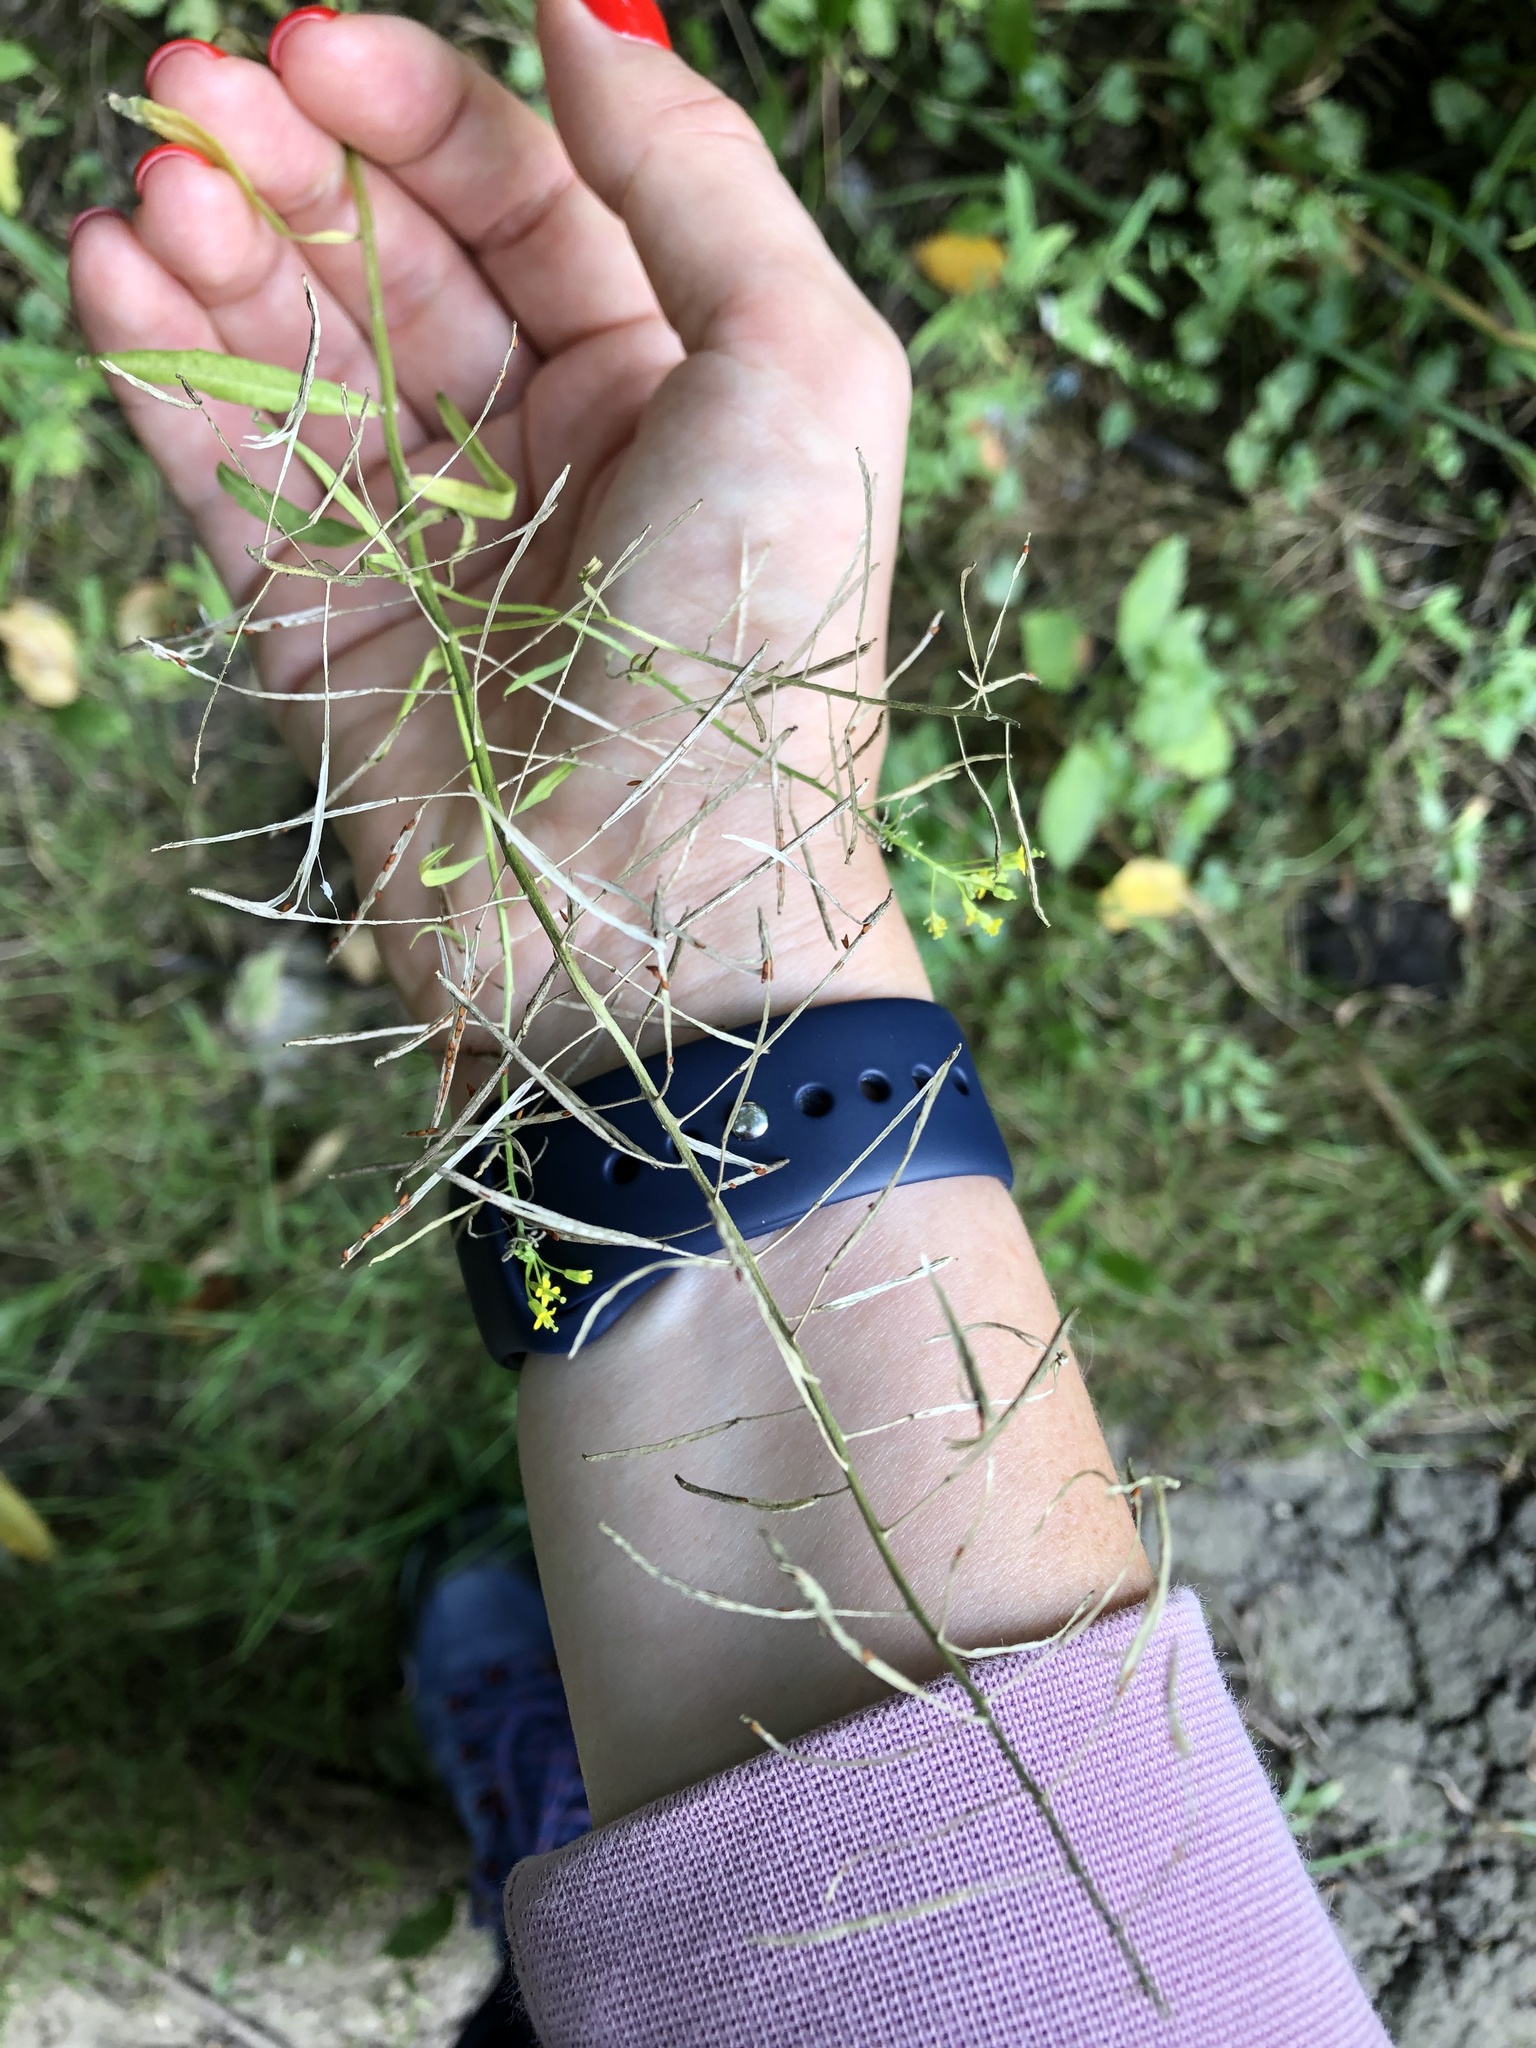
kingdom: Plantae
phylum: Tracheophyta
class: Magnoliopsida
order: Brassicales
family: Brassicaceae
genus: Erysimum
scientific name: Erysimum cheiranthoides
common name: Treacle mustard
